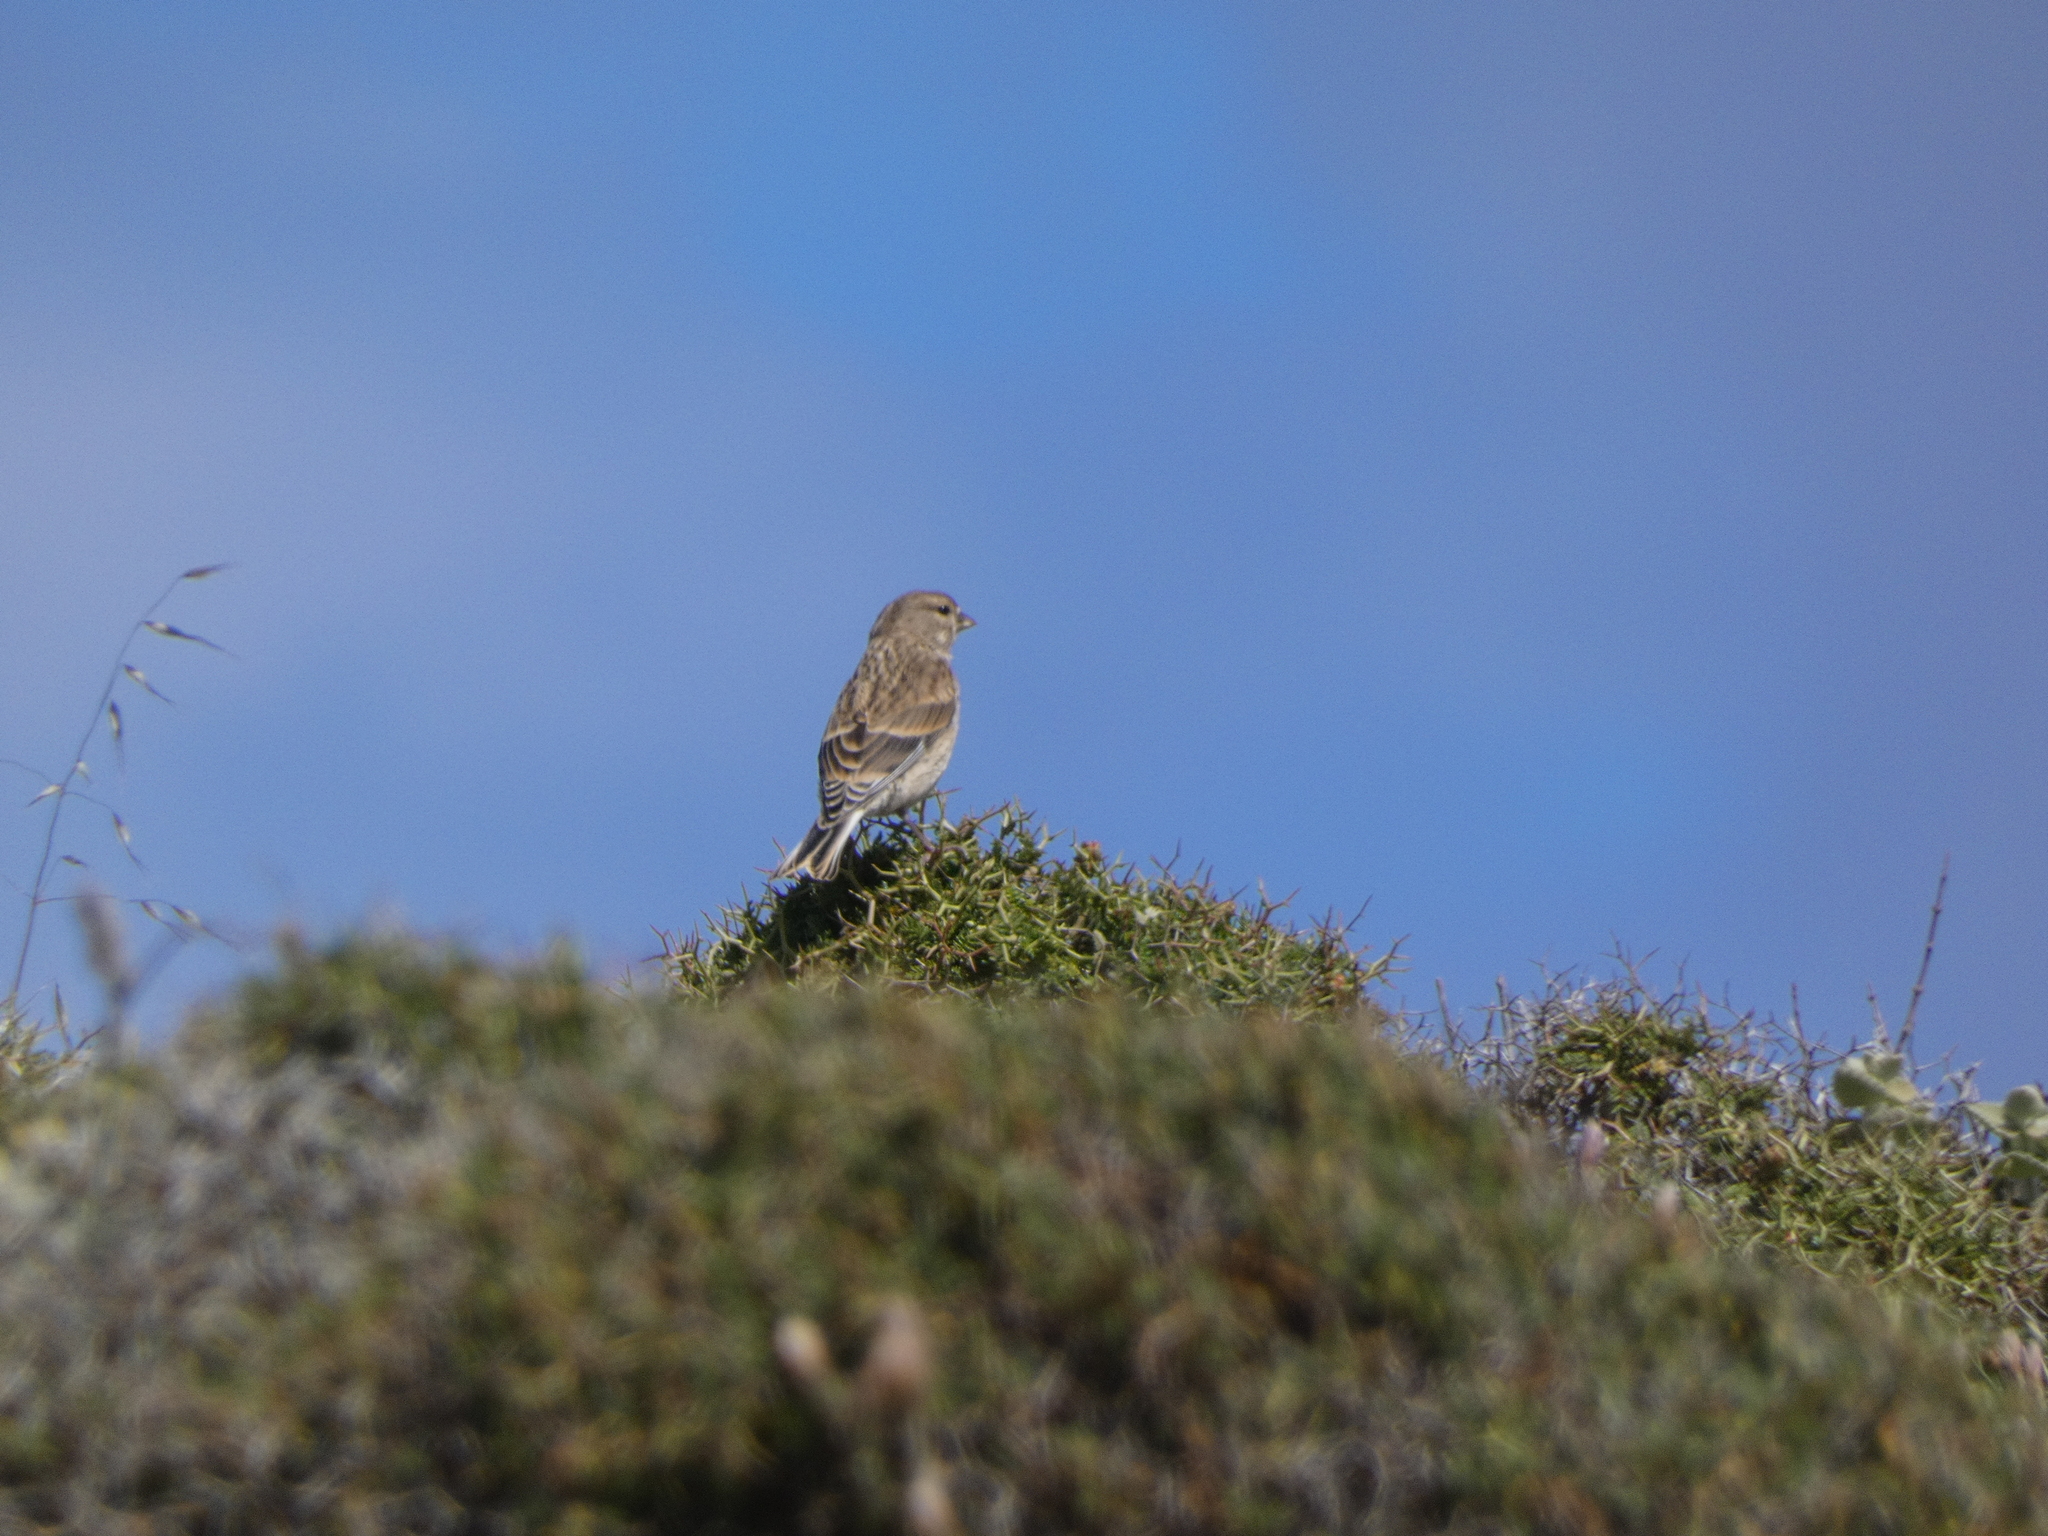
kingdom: Animalia
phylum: Chordata
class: Aves
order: Passeriformes
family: Fringillidae
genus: Linaria
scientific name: Linaria cannabina
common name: Common linnet
